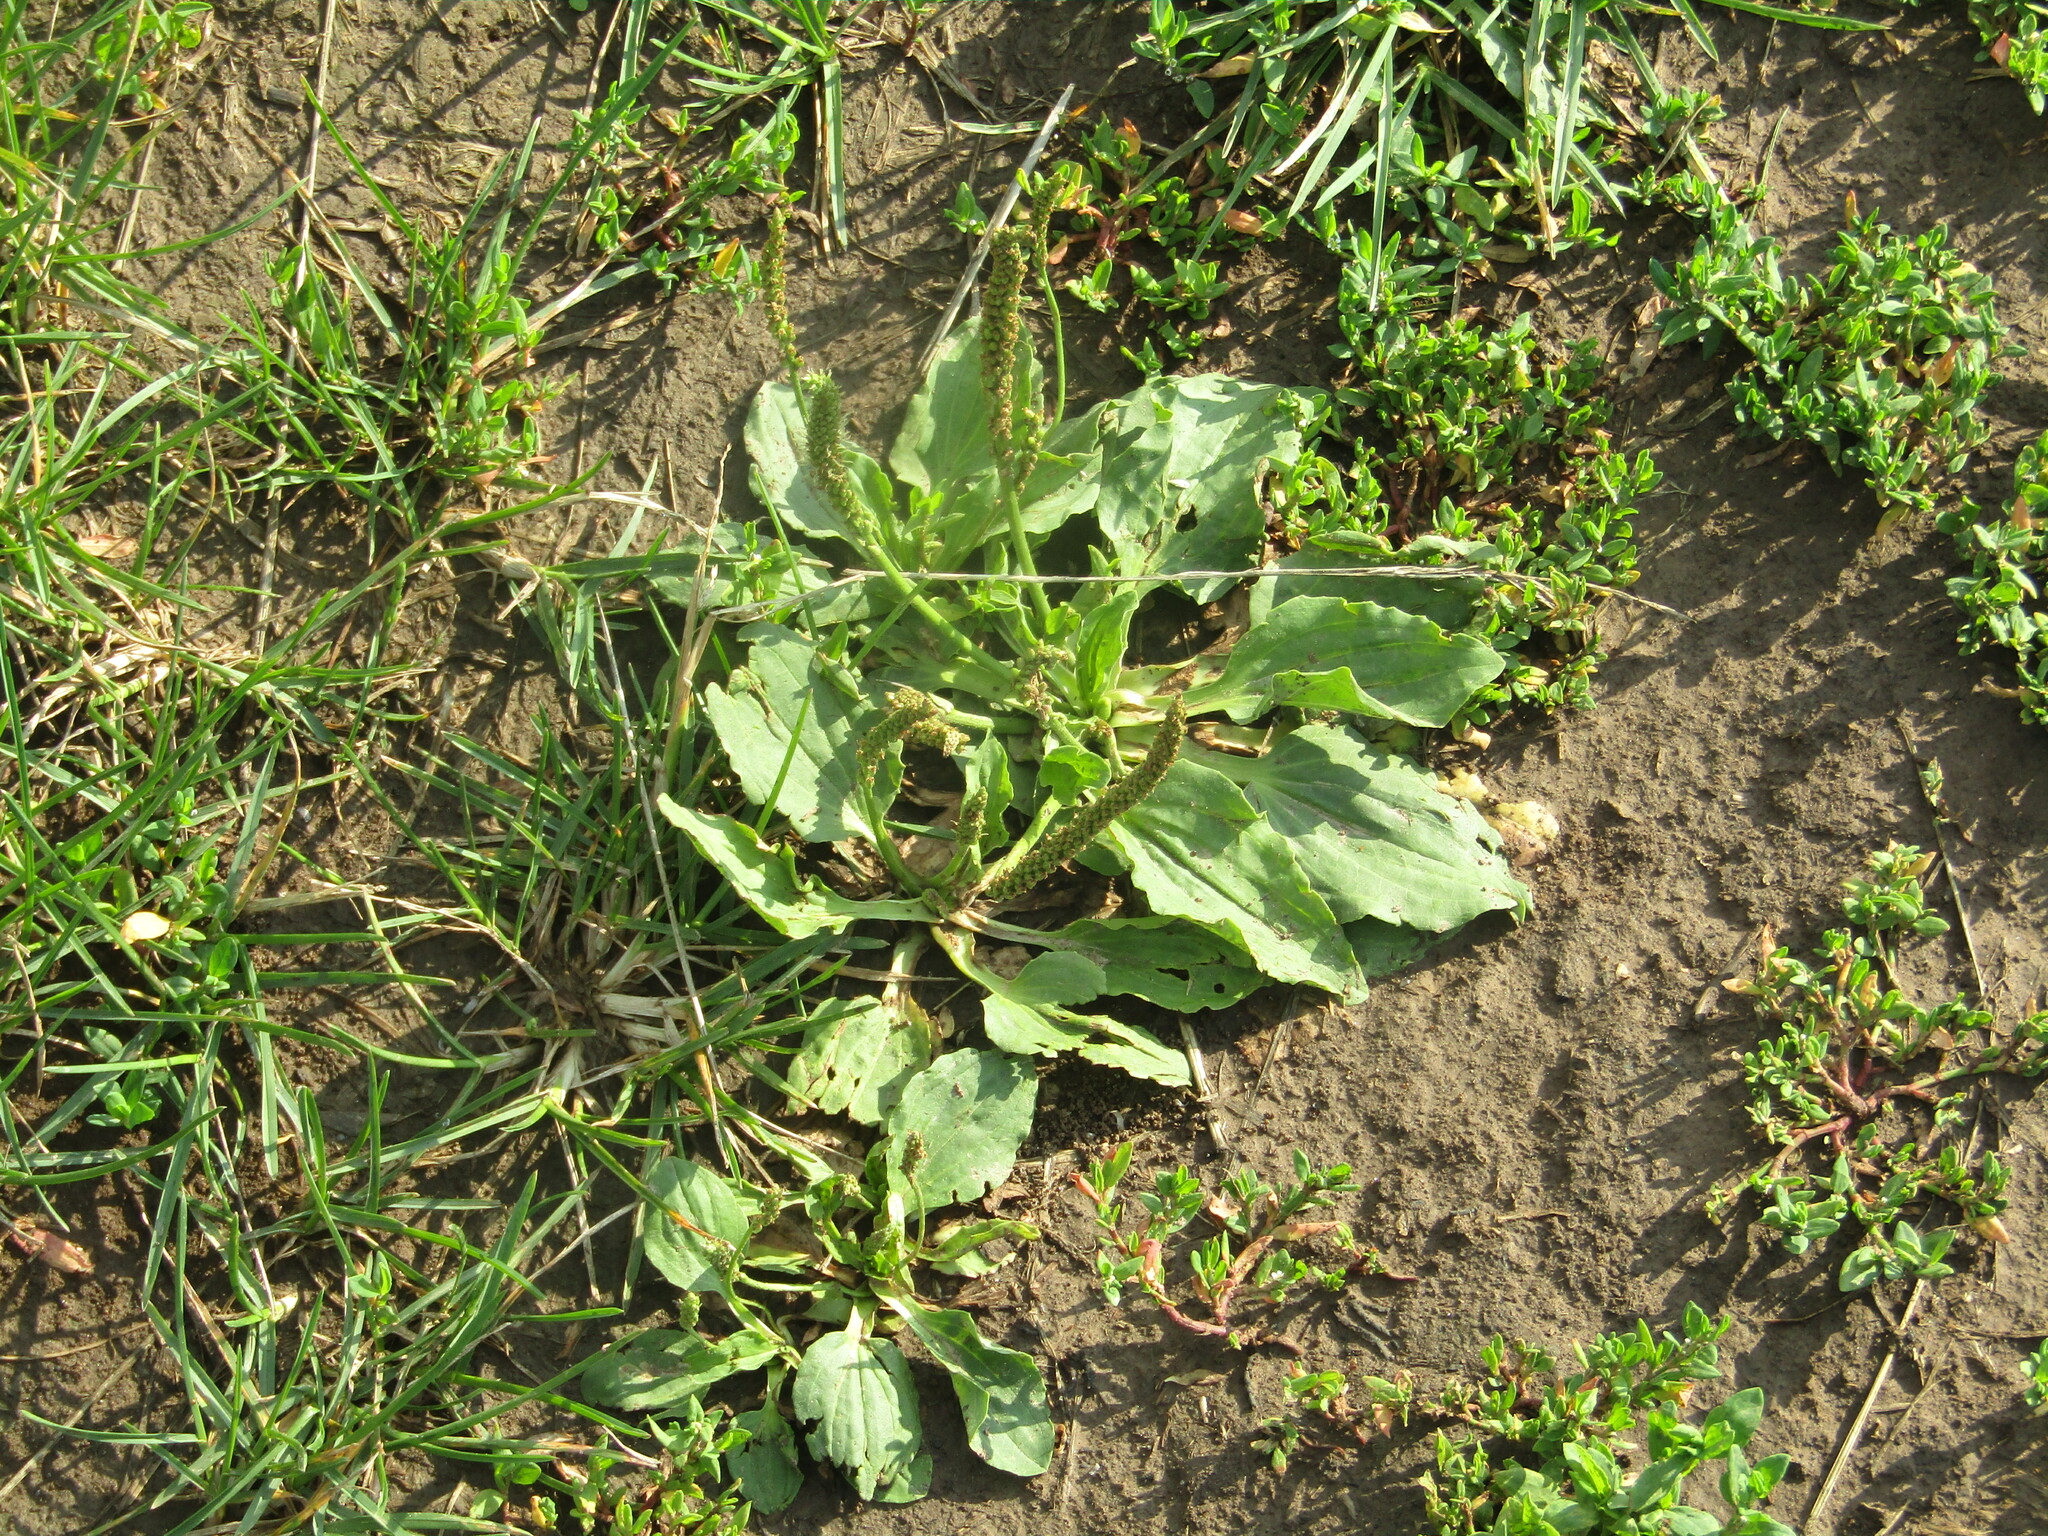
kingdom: Plantae
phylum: Tracheophyta
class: Magnoliopsida
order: Lamiales
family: Plantaginaceae
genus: Plantago
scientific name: Plantago major
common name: Common plantain
